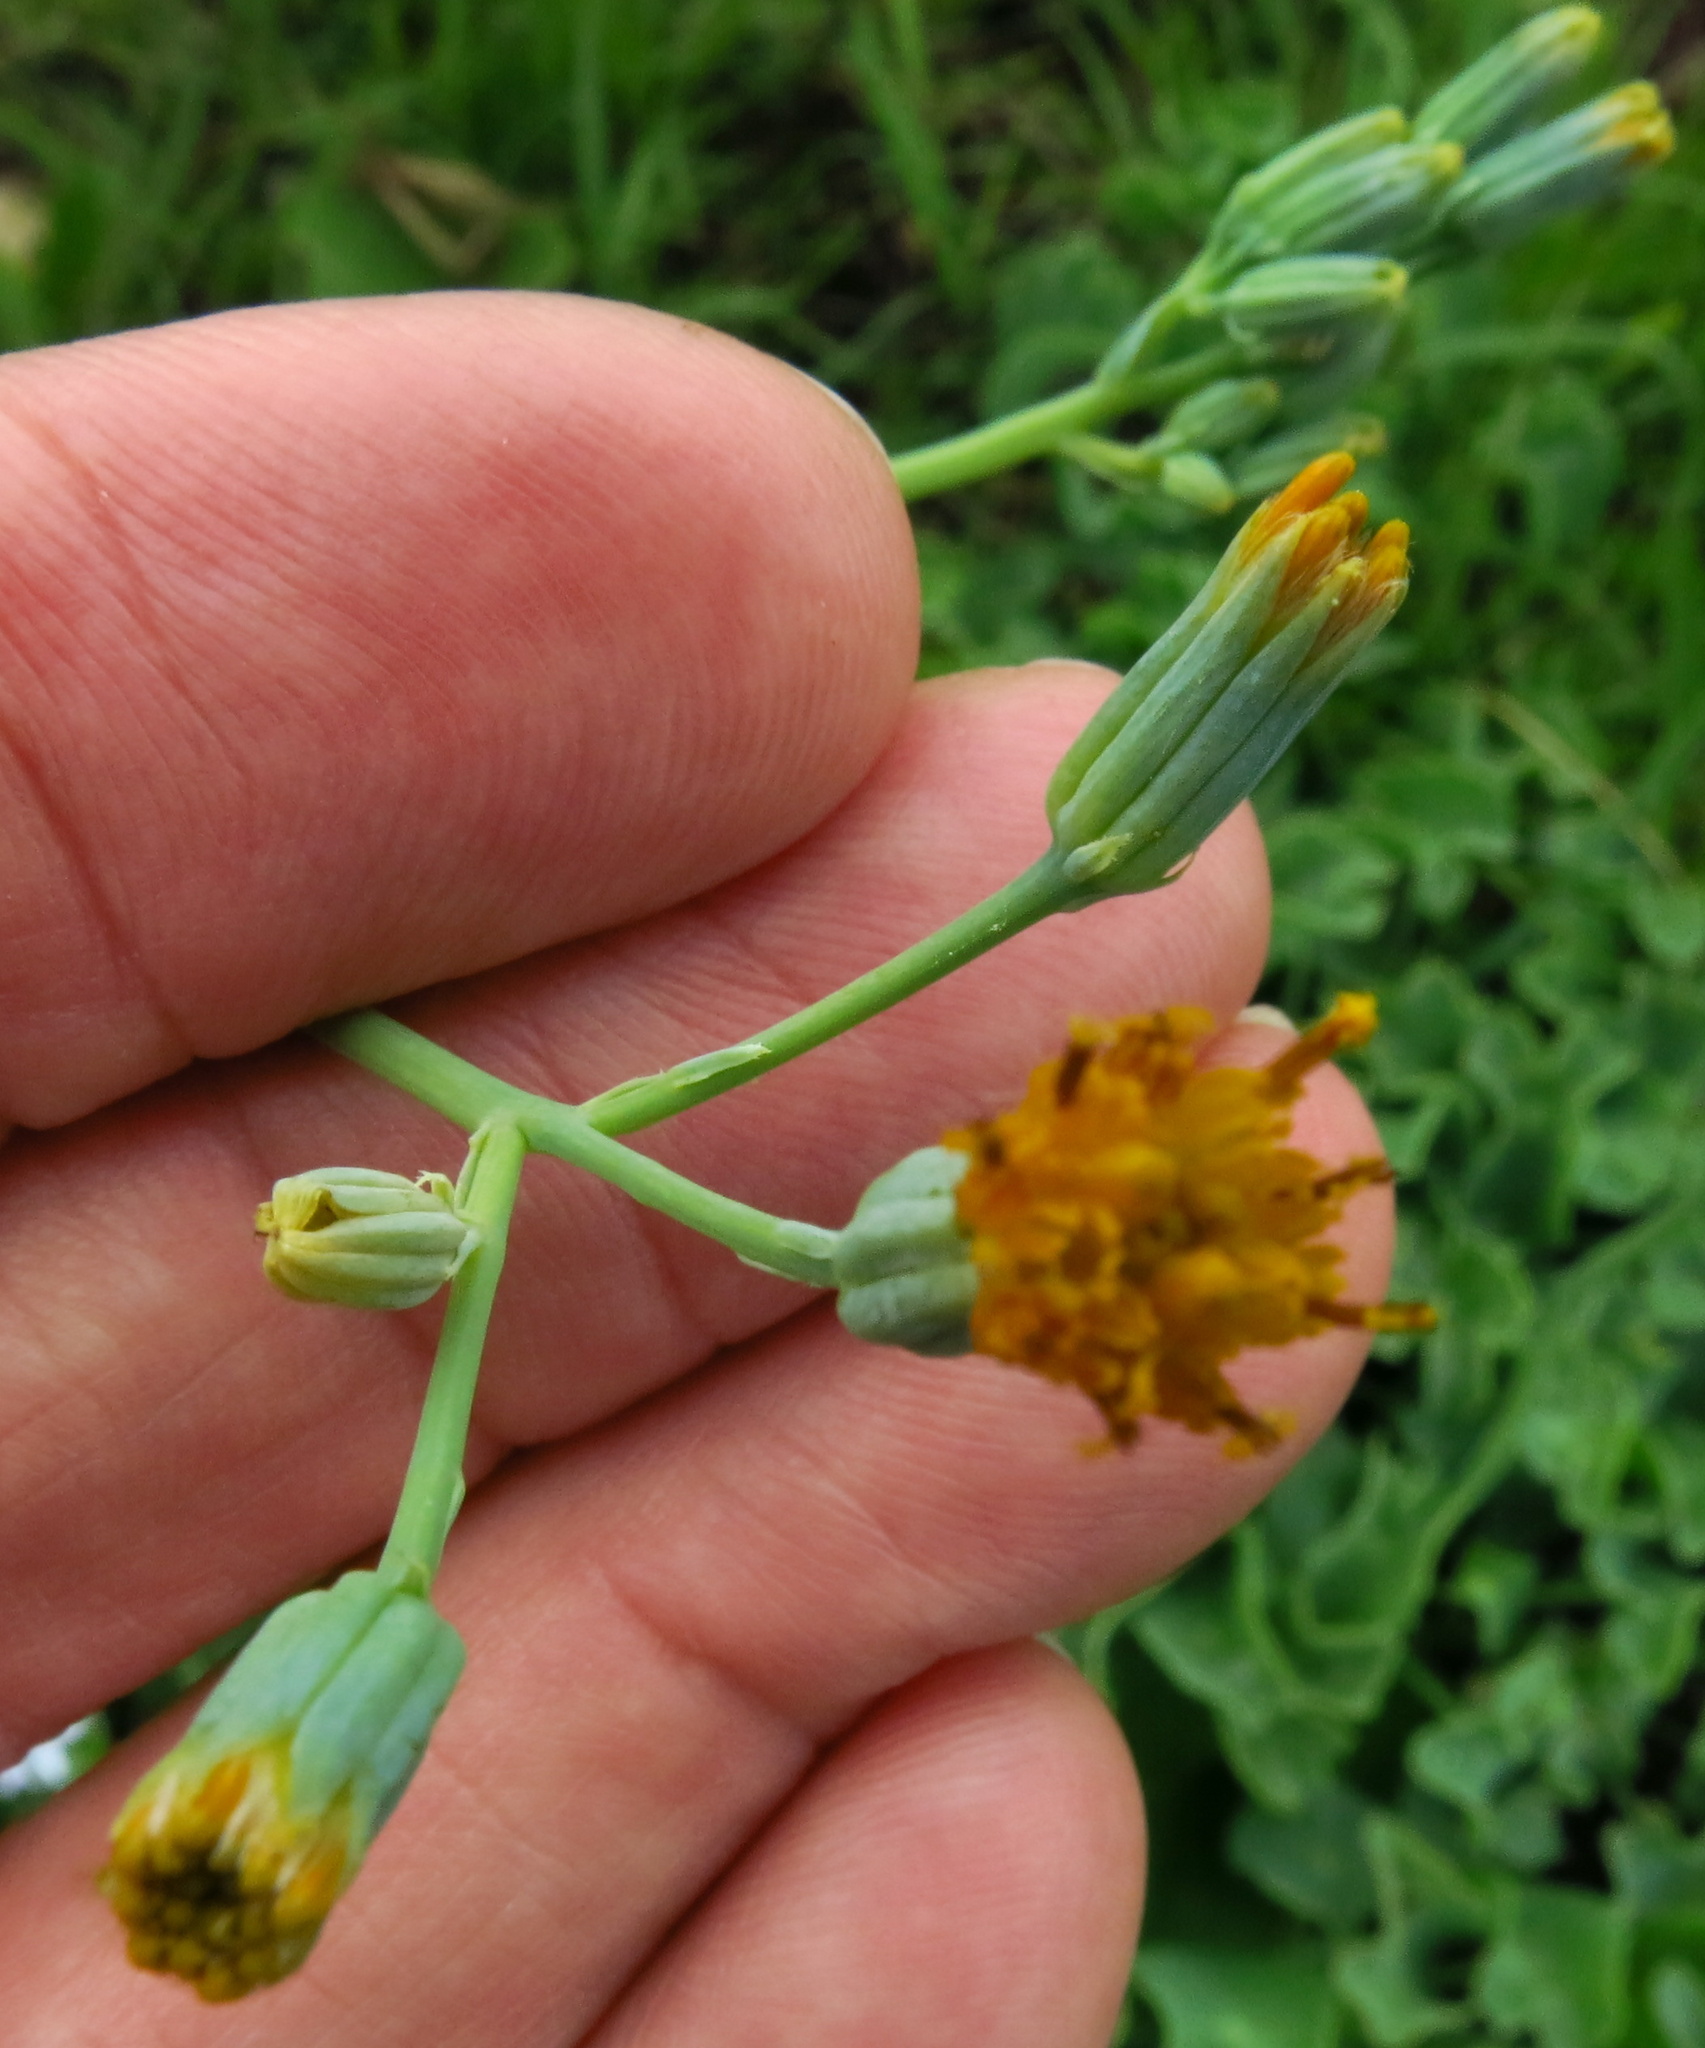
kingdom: Plantae
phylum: Tracheophyta
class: Magnoliopsida
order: Asterales
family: Asteraceae
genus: Senecio
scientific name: Senecio oxyriifolius
